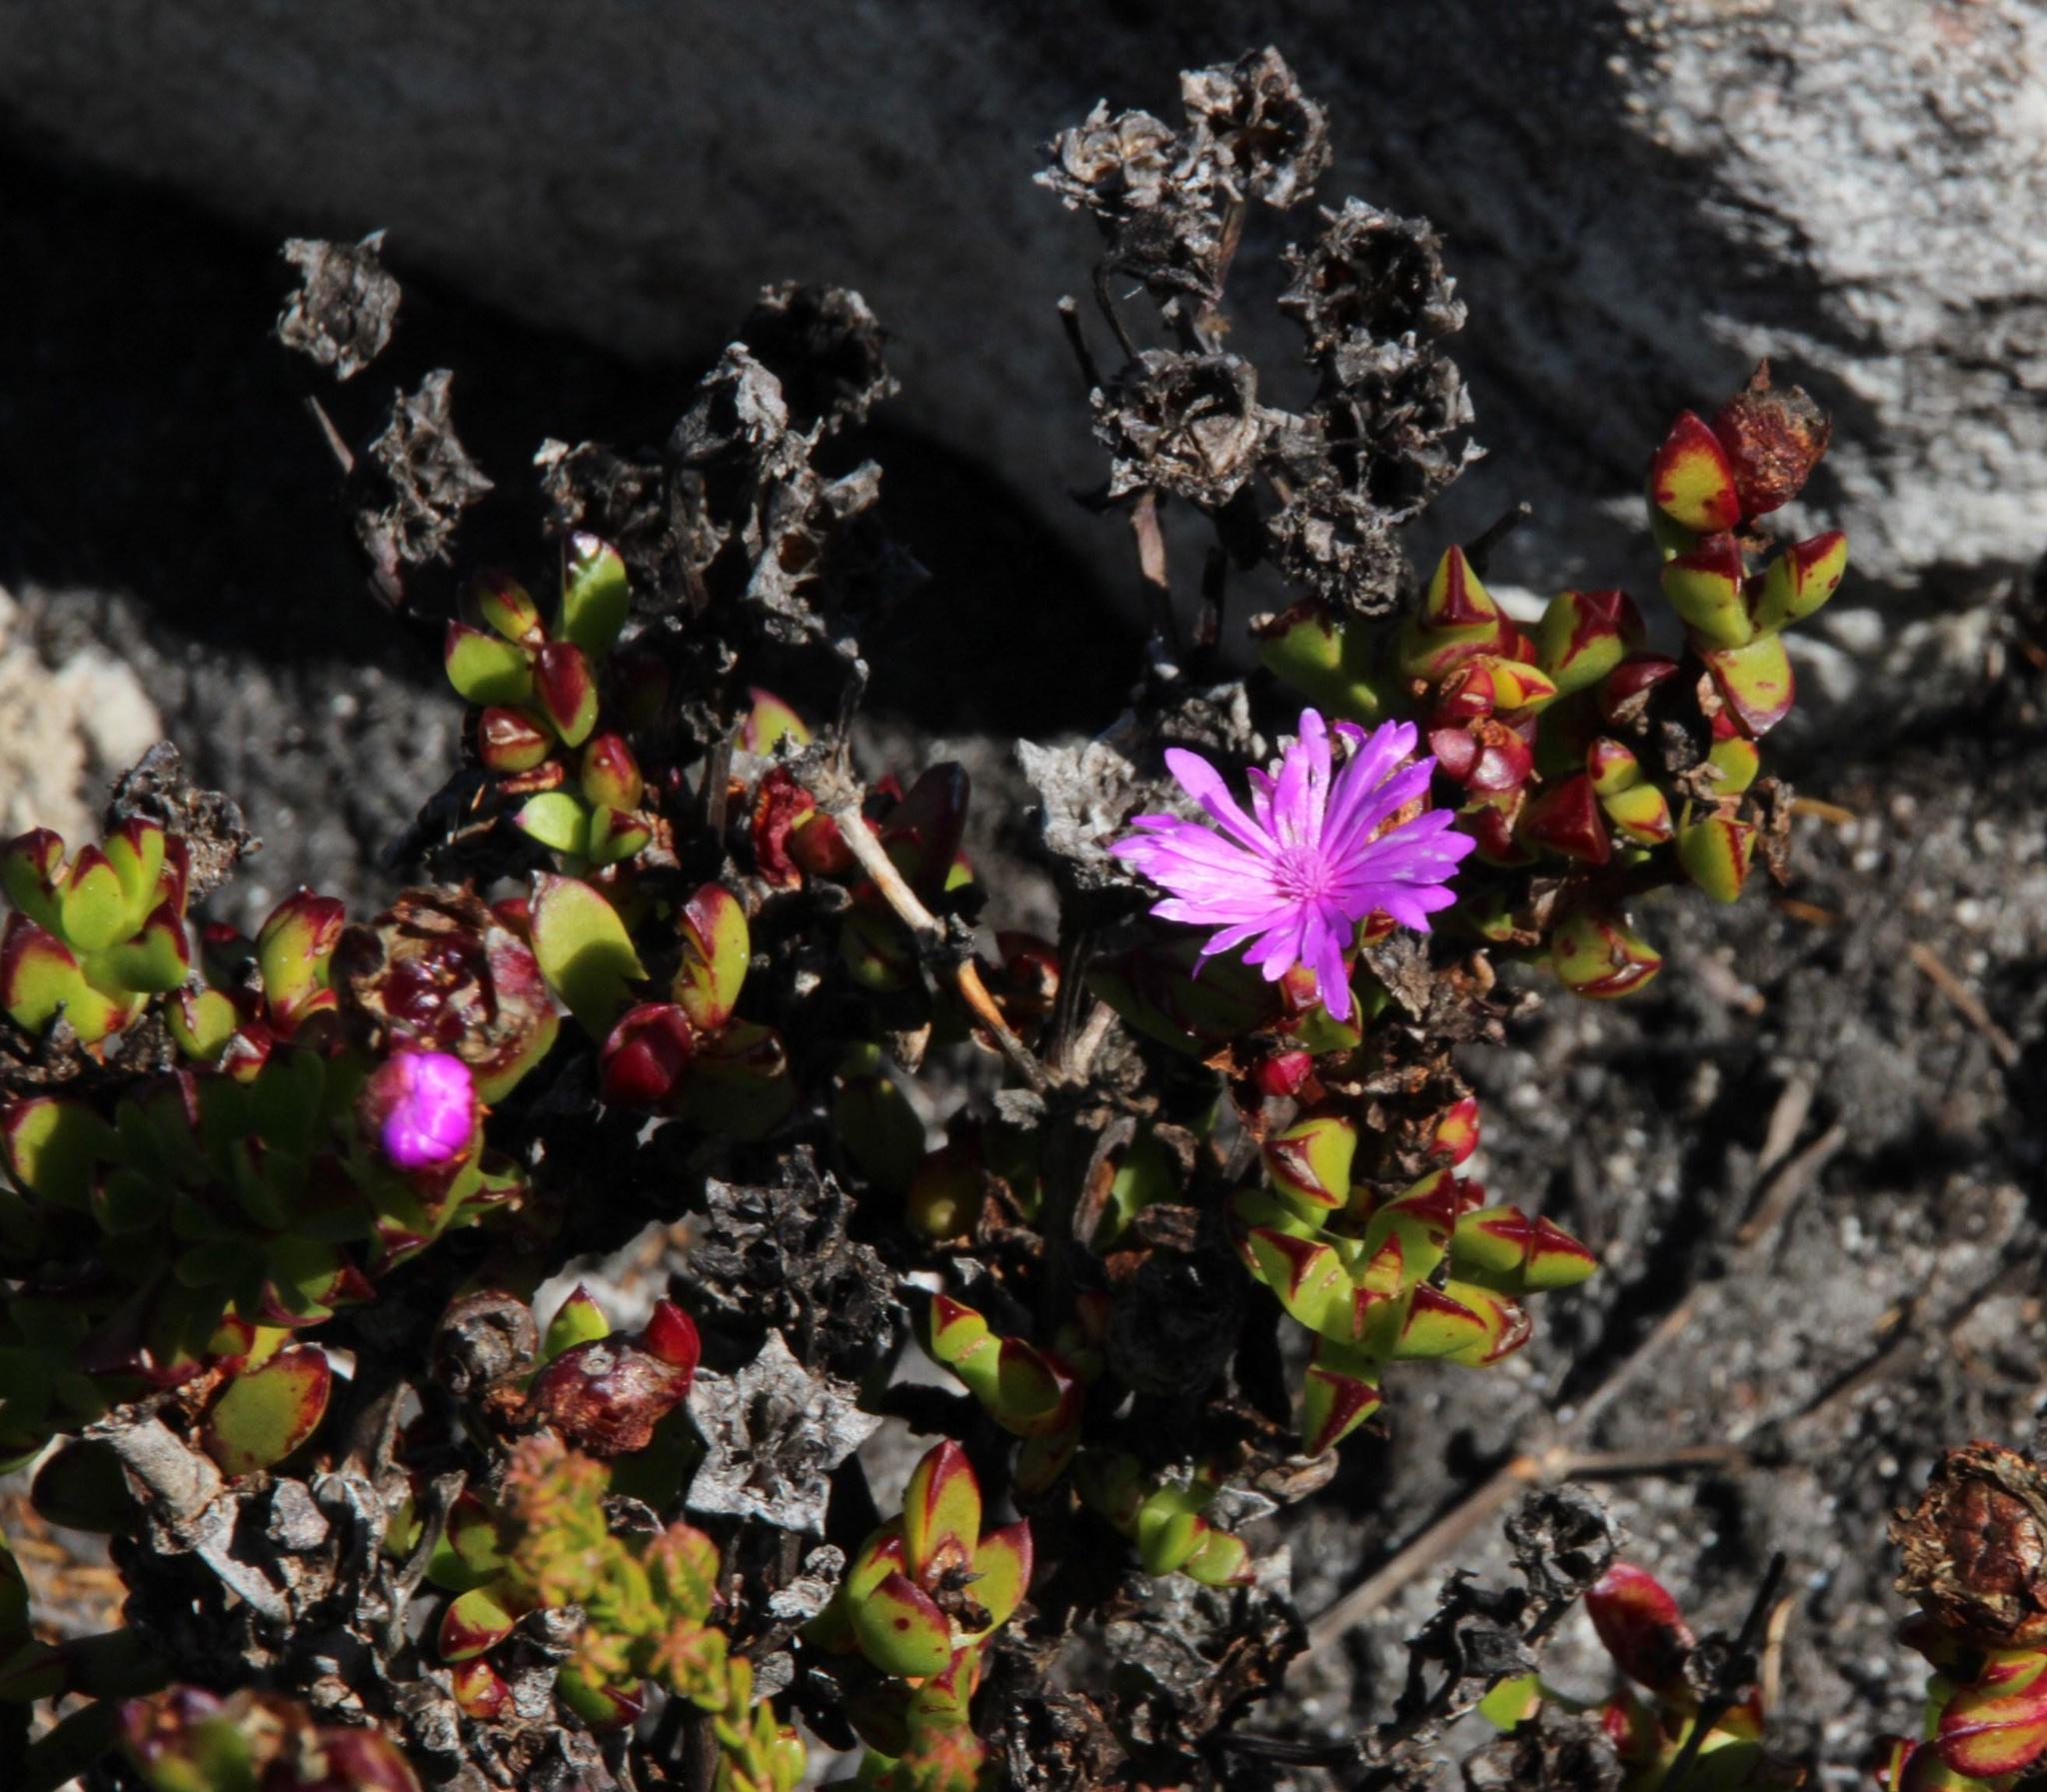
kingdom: Plantae
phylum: Tracheophyta
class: Magnoliopsida
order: Caryophyllales
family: Aizoaceae
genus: Erepsia
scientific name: Erepsia inclaudens
